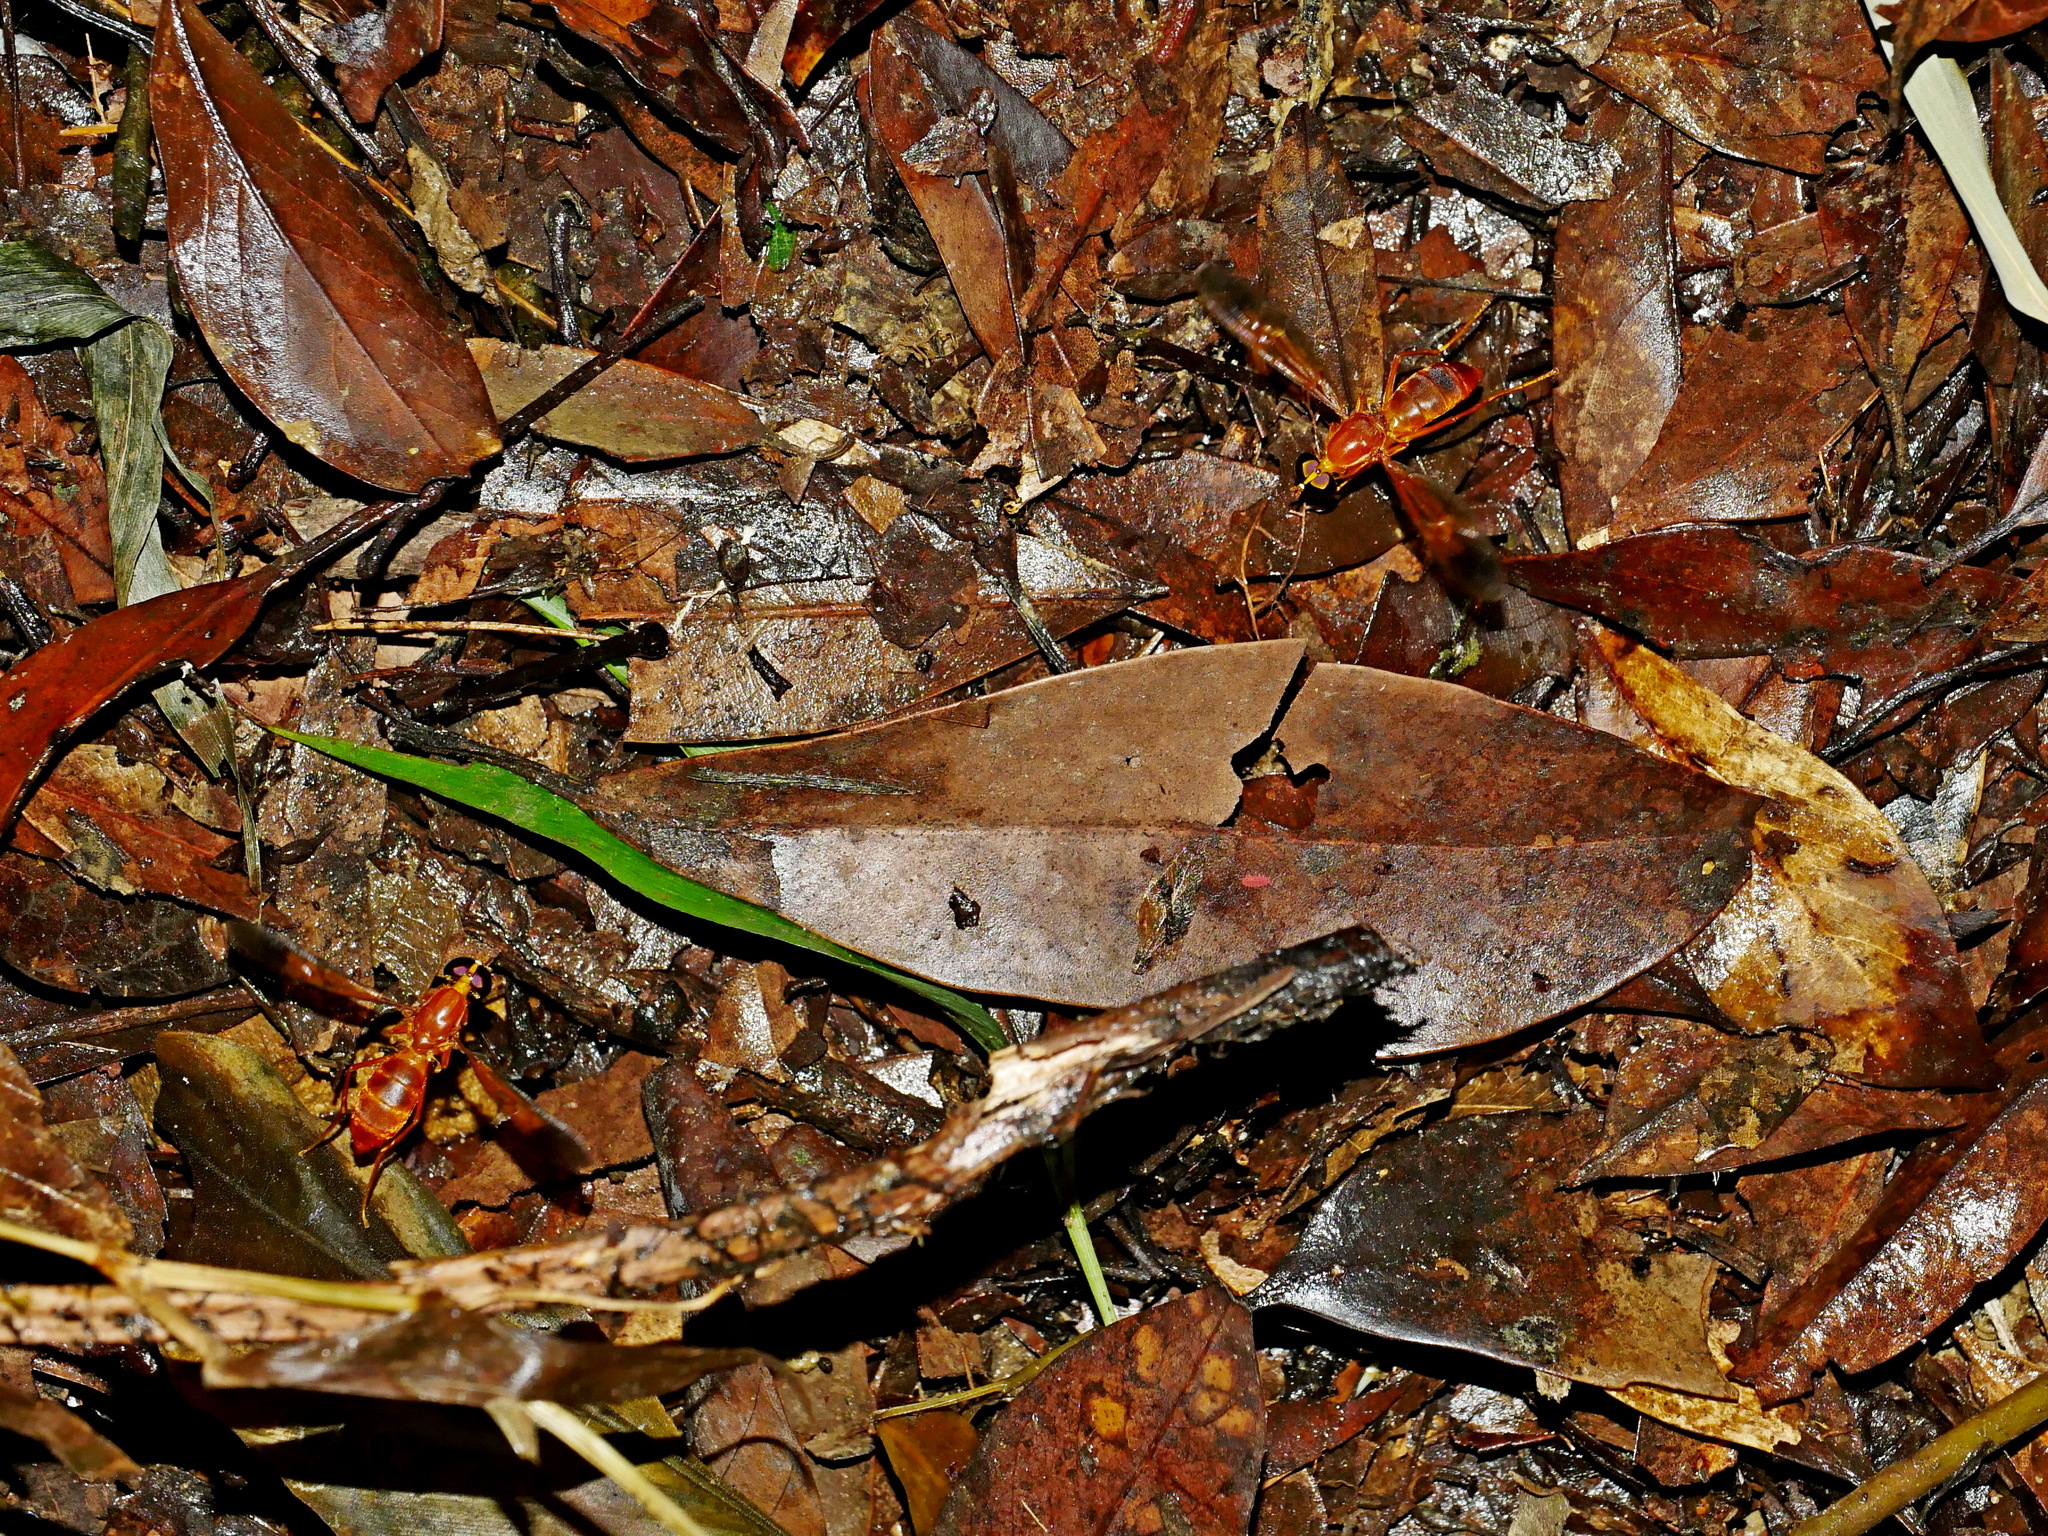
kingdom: Animalia
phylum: Arthropoda
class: Insecta
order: Diptera
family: Stratiomyidae
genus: Ptecticus
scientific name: Ptecticus aurifer
